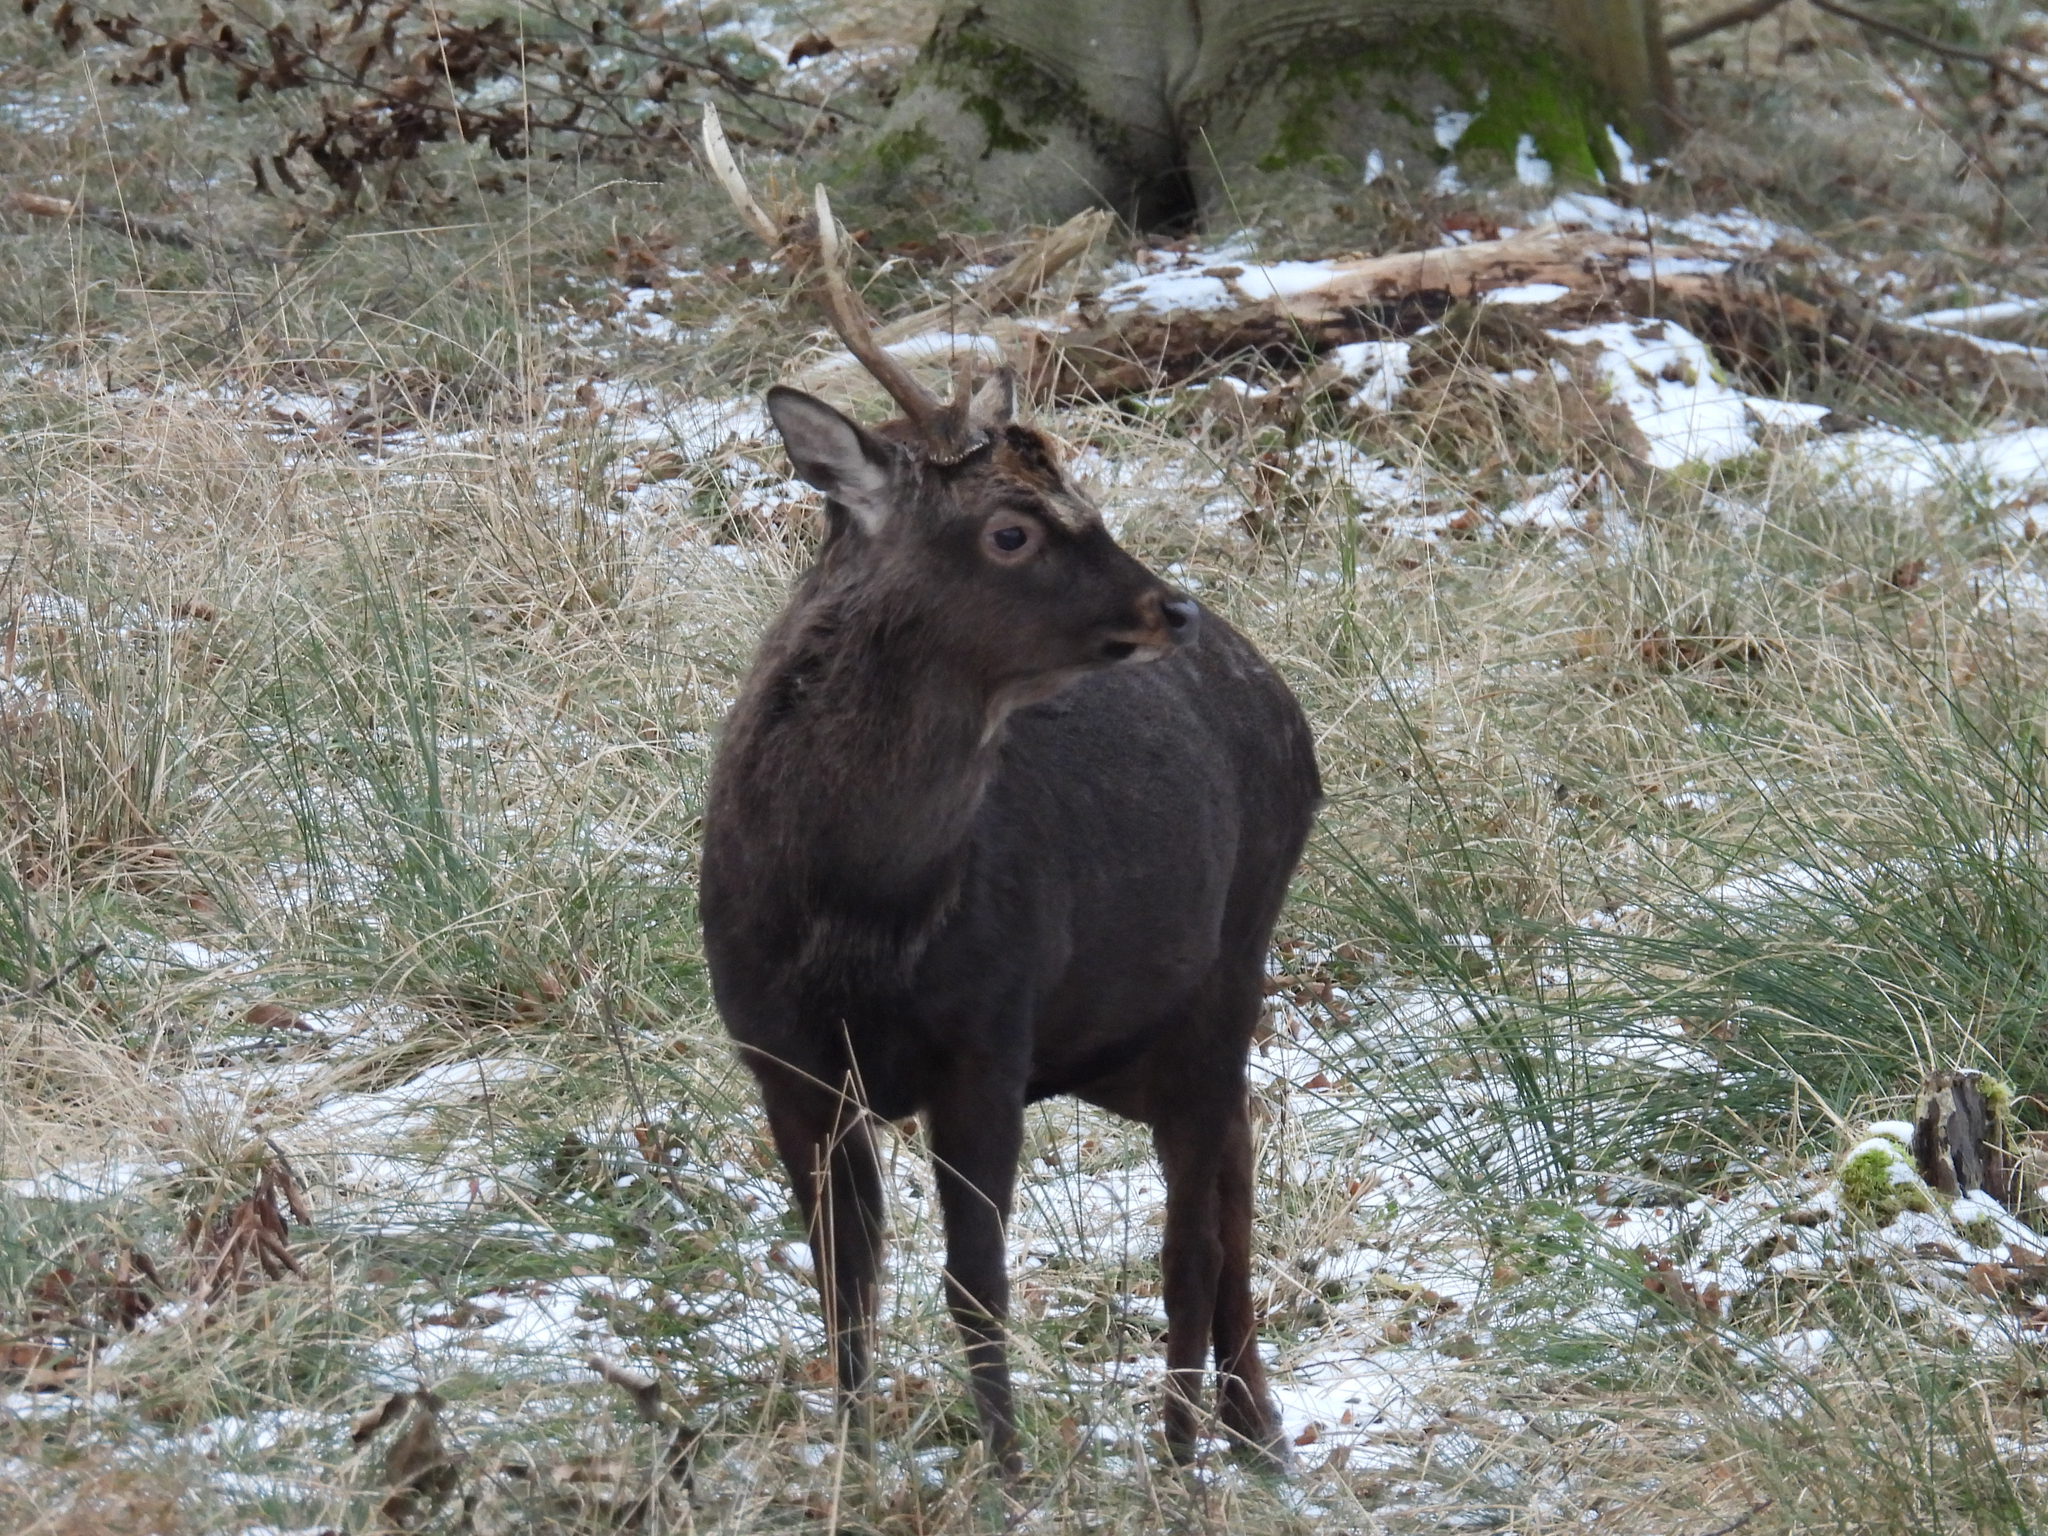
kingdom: Animalia
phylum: Chordata
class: Mammalia
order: Artiodactyla
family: Cervidae
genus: Cervus
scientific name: Cervus nippon
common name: Sika deer
